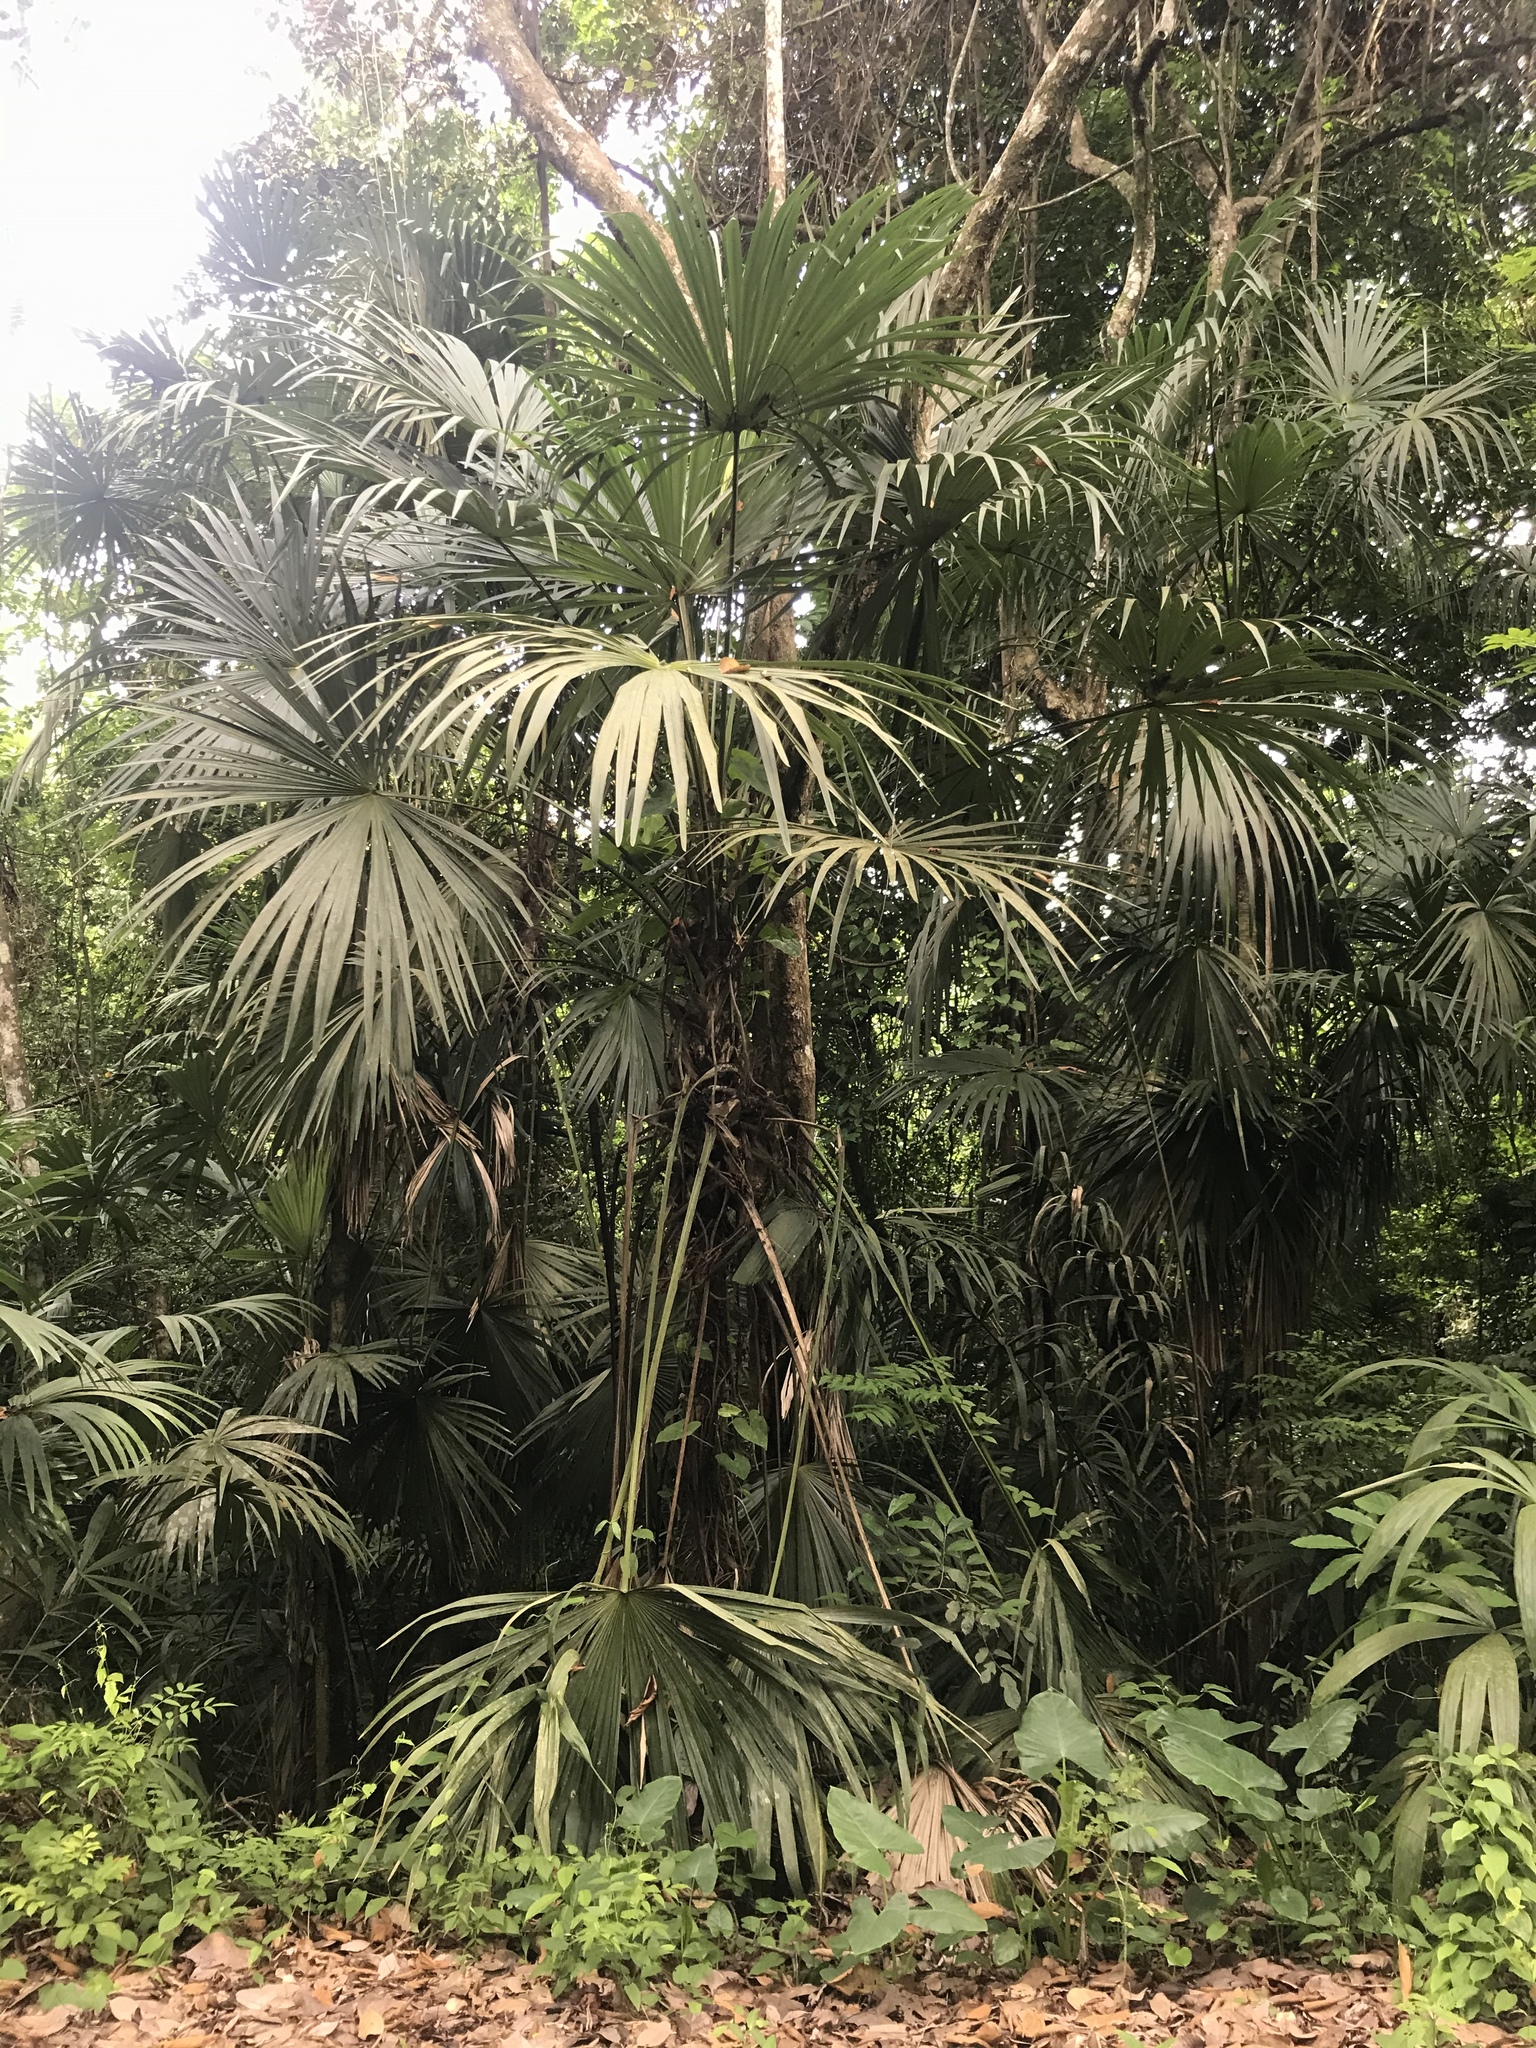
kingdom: Plantae
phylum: Tracheophyta
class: Liliopsida
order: Pandanales
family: Cyclanthaceae
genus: Carludovica
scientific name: Carludovica palmata
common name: Panama hat plant
